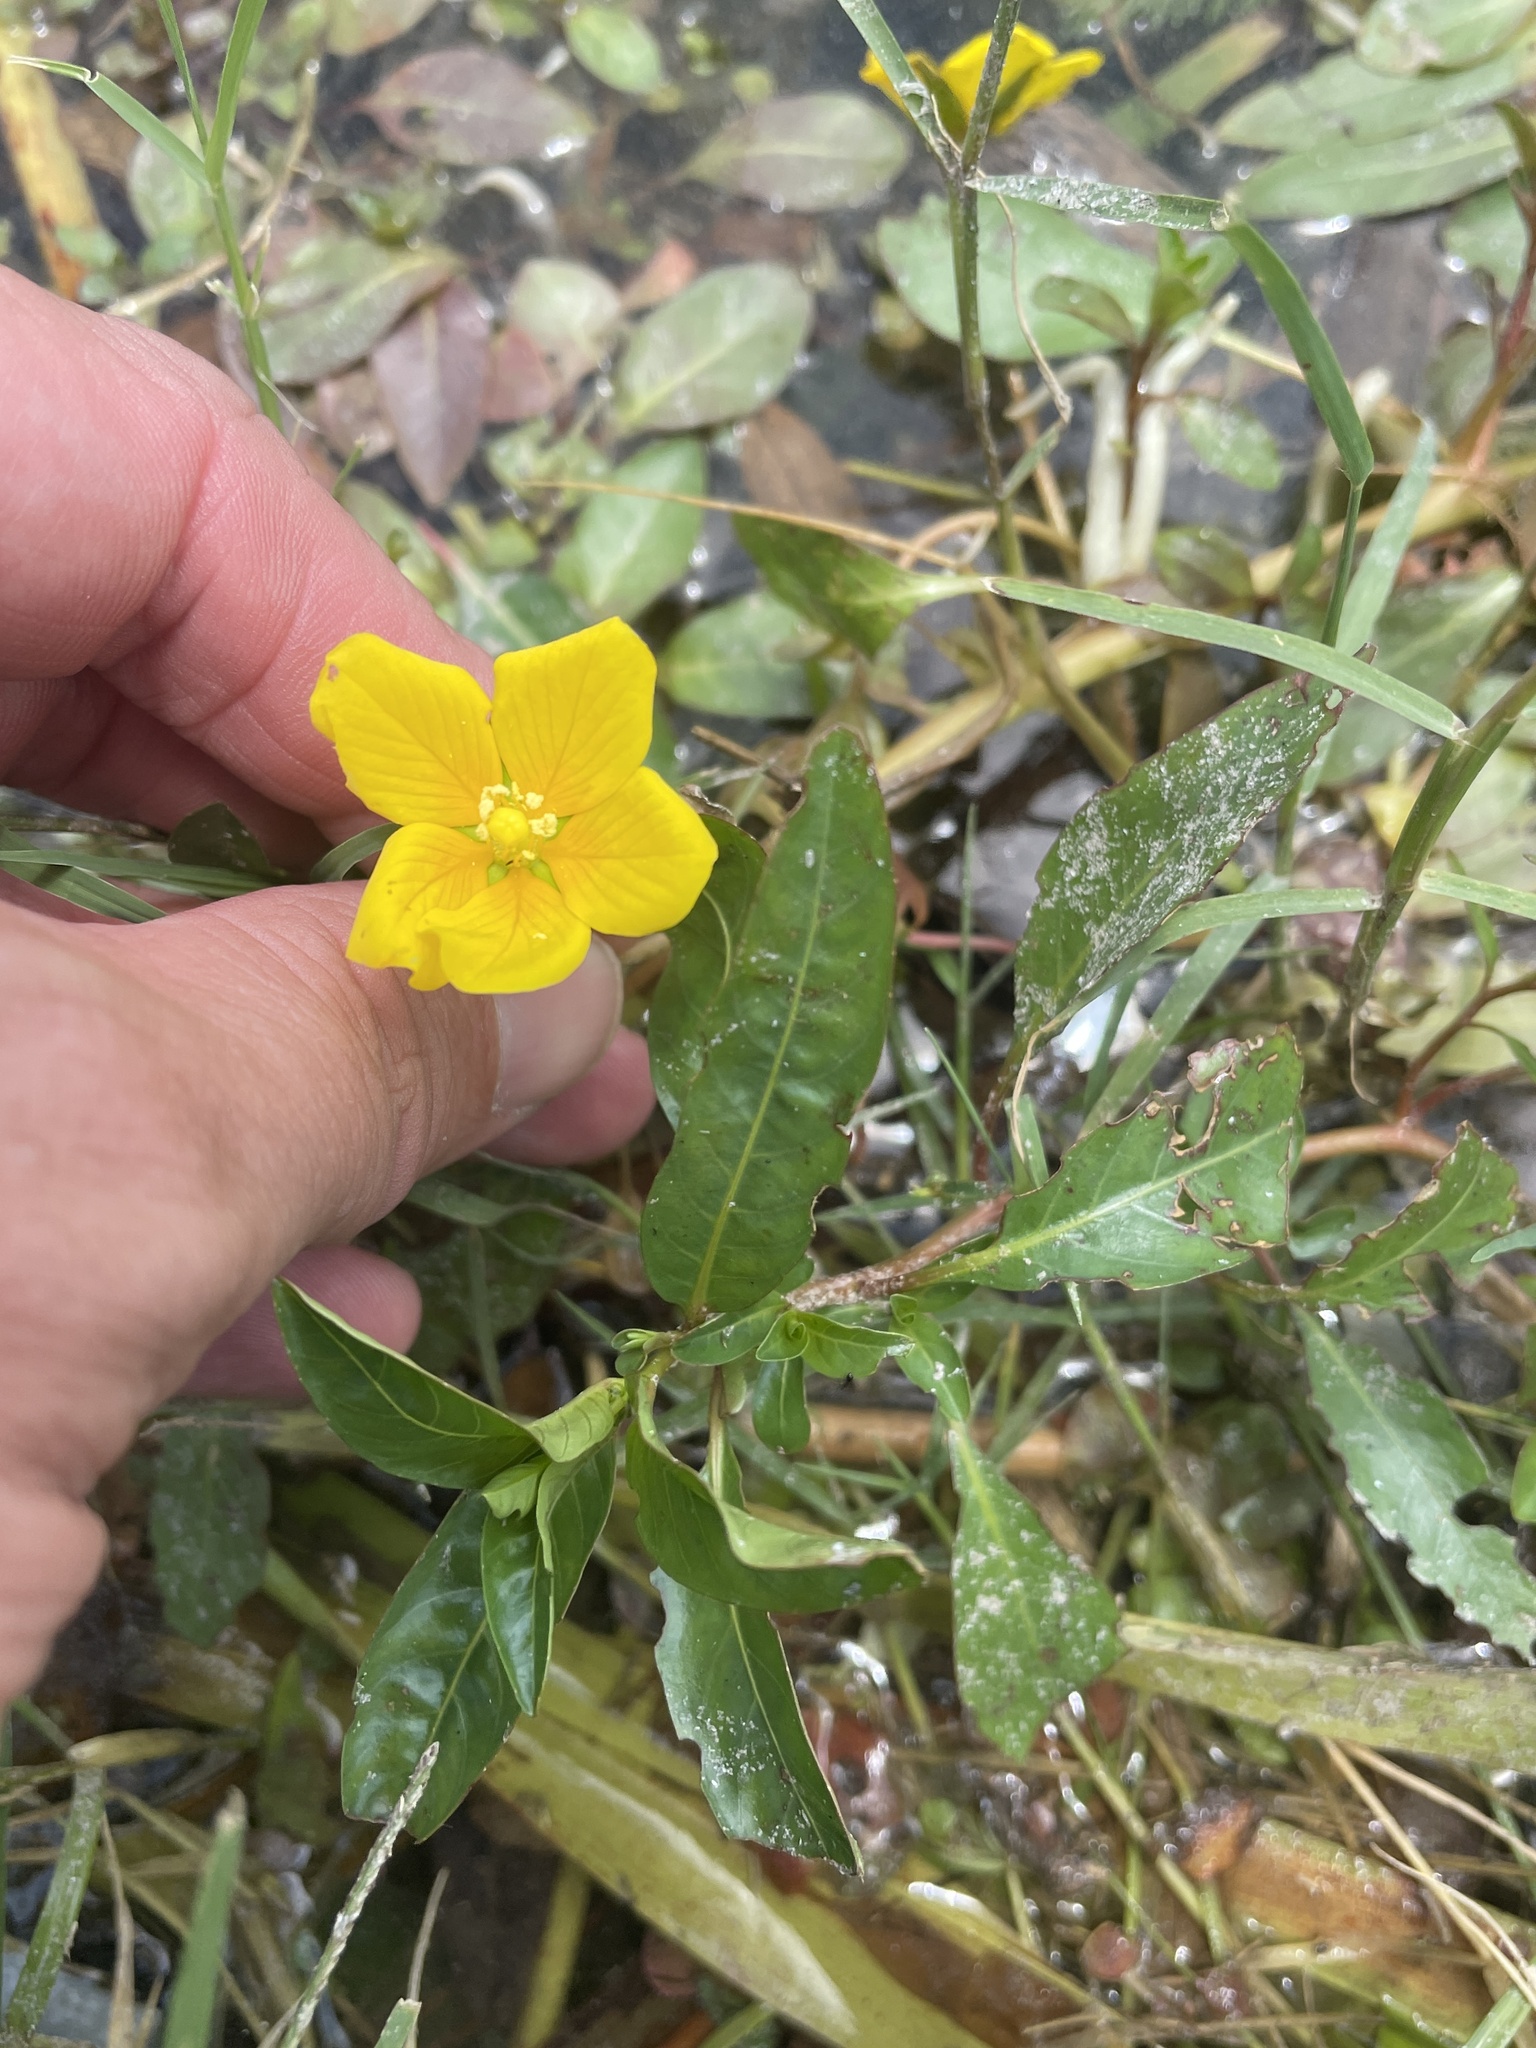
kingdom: Plantae
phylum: Tracheophyta
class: Magnoliopsida
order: Myrtales
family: Onagraceae
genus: Ludwigia
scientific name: Ludwigia peploides
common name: Floating primrose-willow
